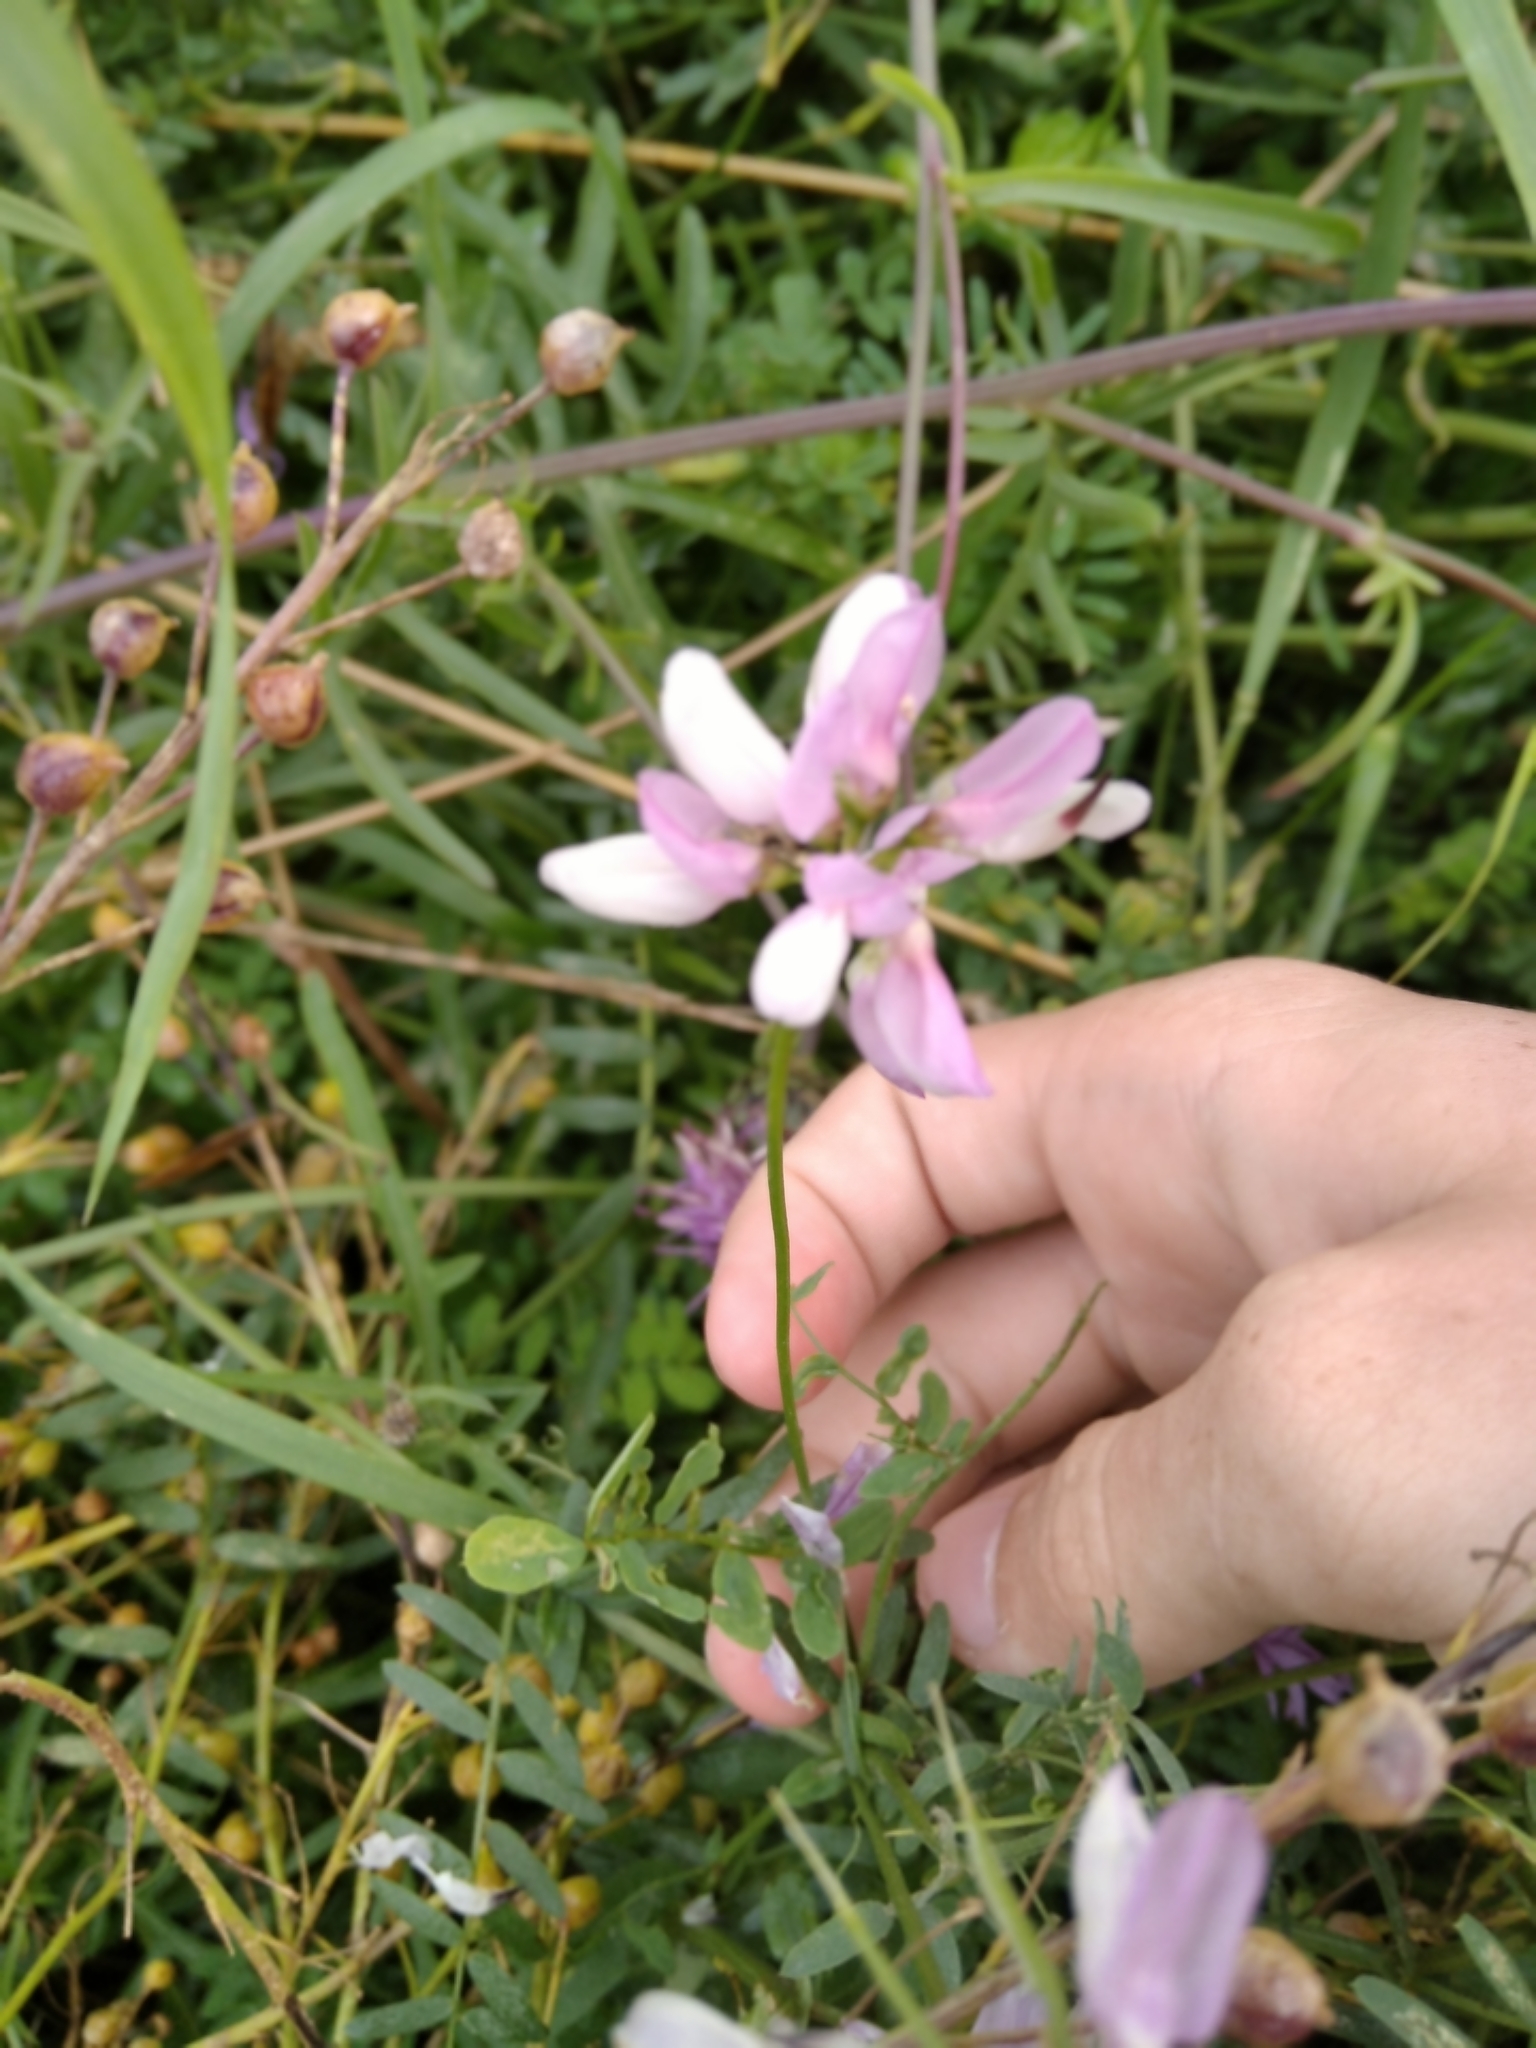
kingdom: Plantae
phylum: Tracheophyta
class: Magnoliopsida
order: Fabales
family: Fabaceae
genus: Coronilla
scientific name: Coronilla varia
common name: Crownvetch
